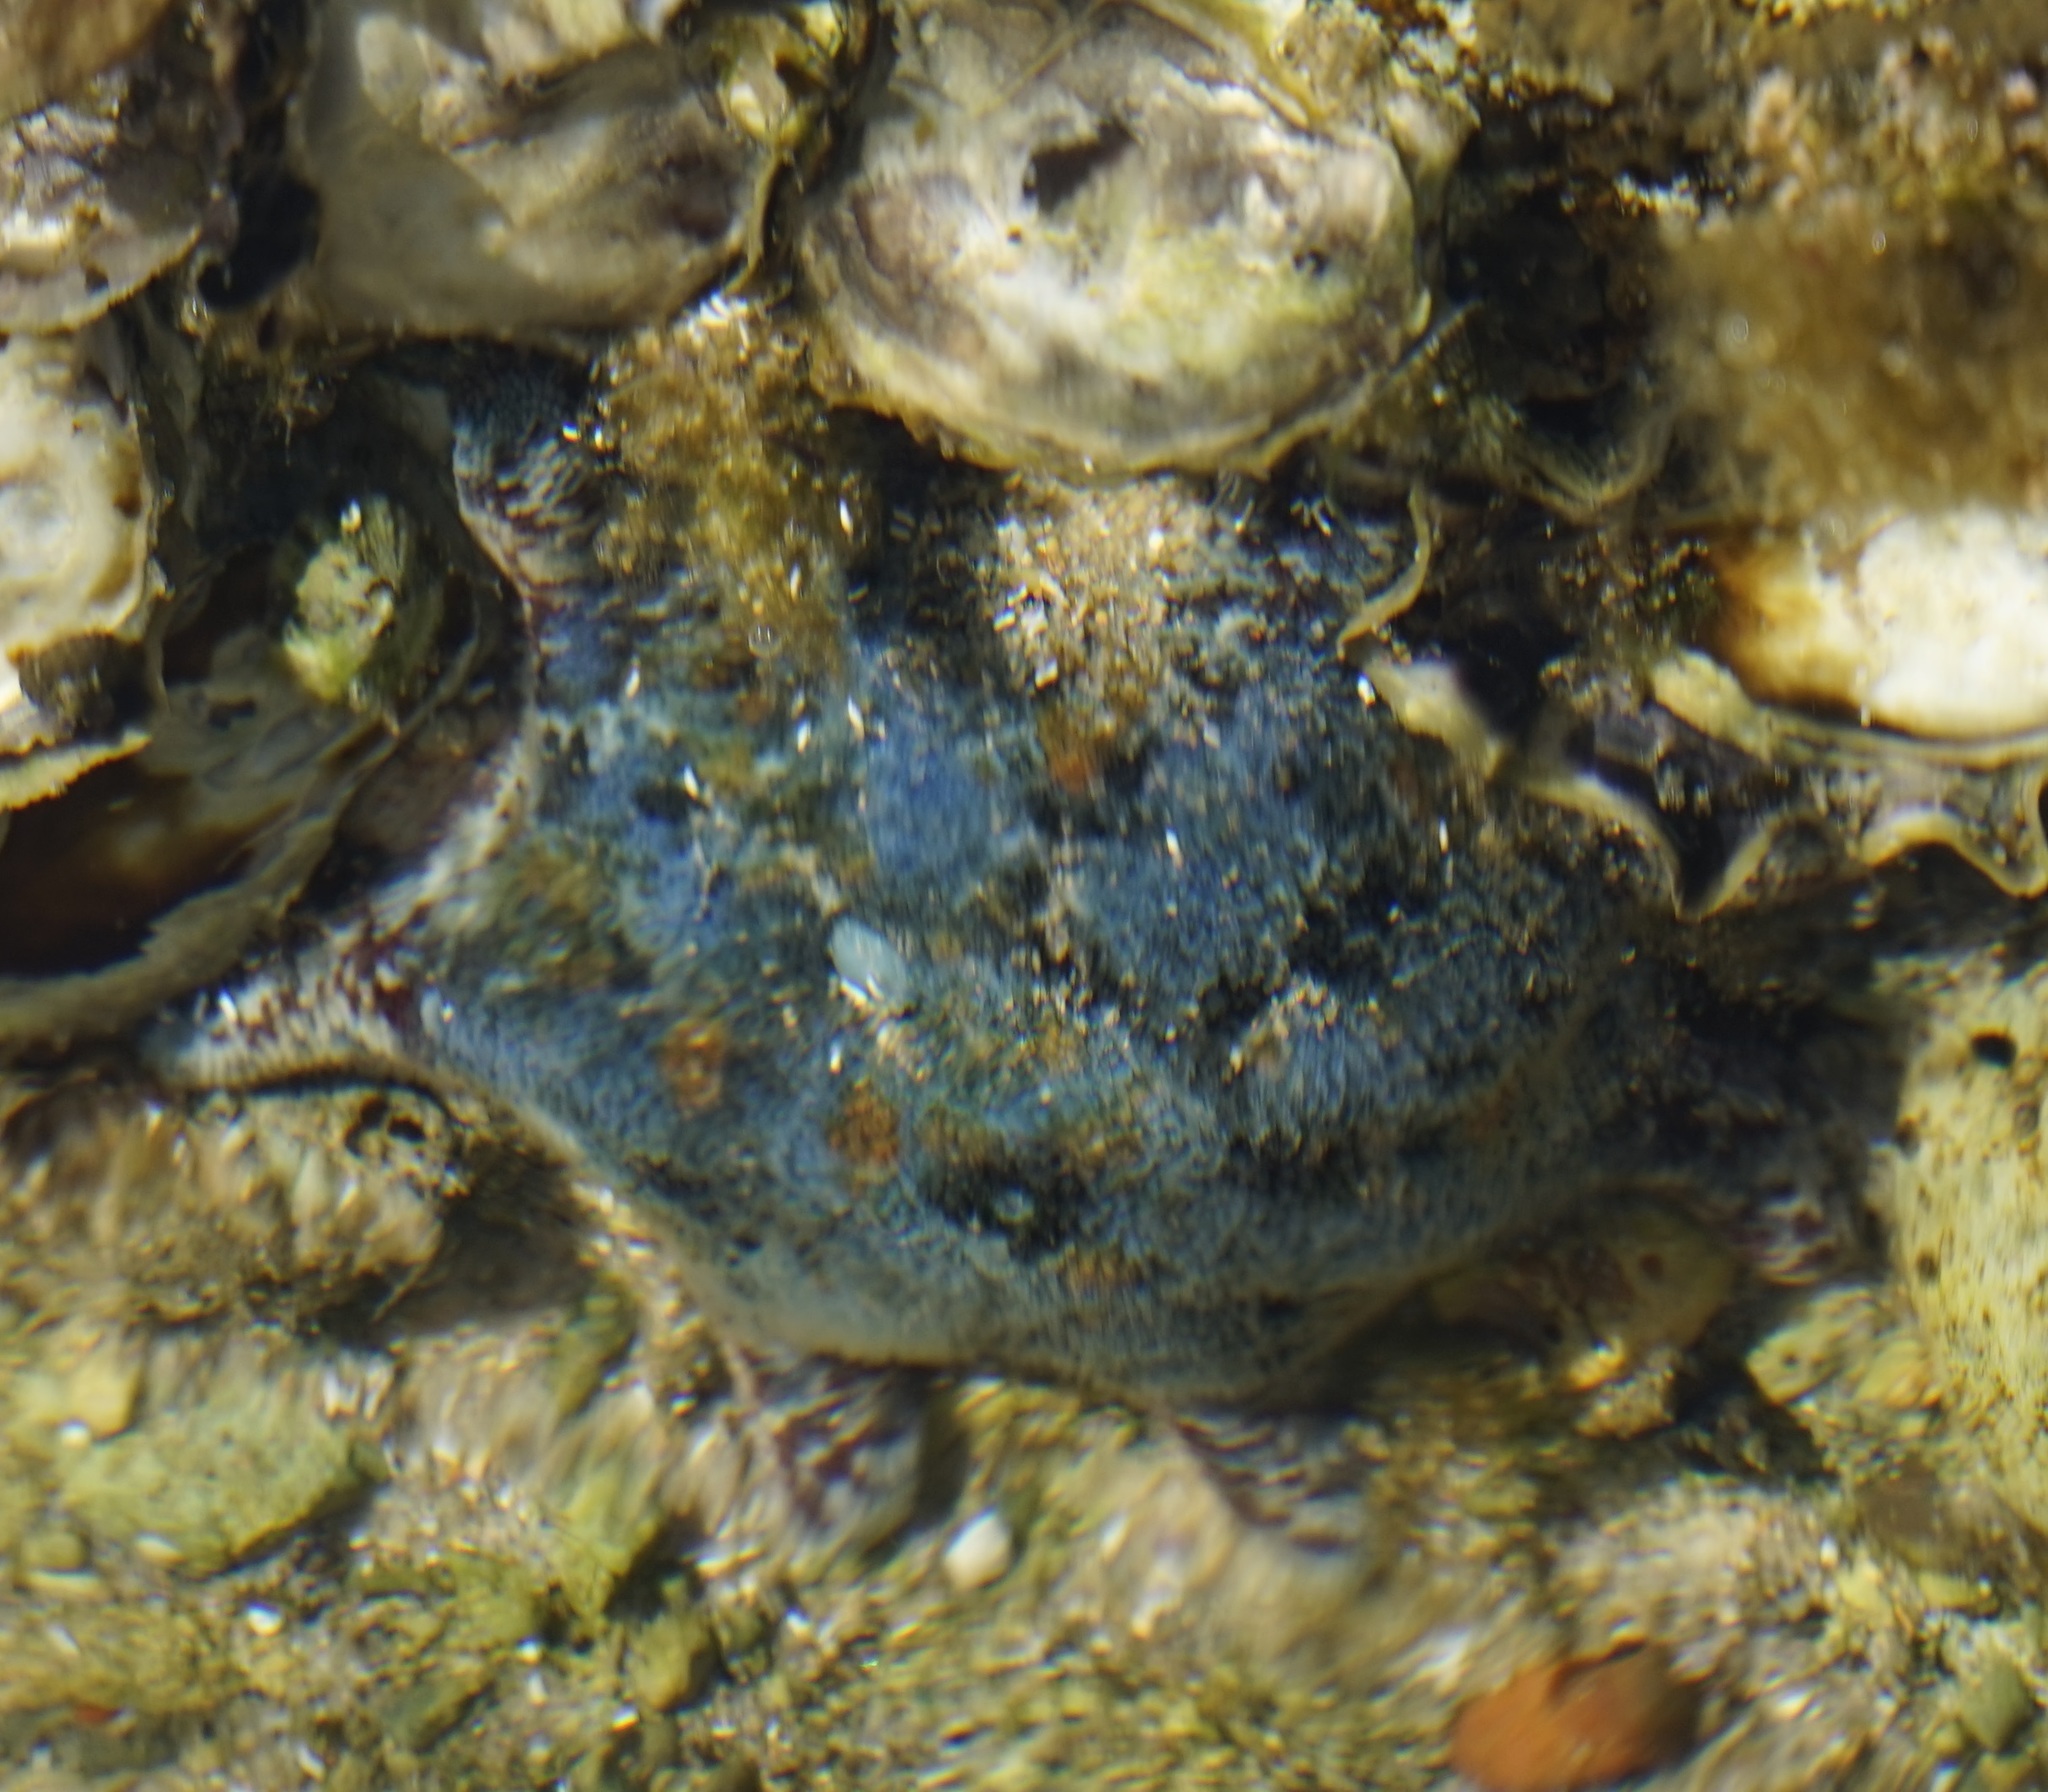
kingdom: Animalia
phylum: Echinodermata
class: Asteroidea
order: Valvatida
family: Asterinidae
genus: Meridiastra
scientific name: Meridiastra calcar
